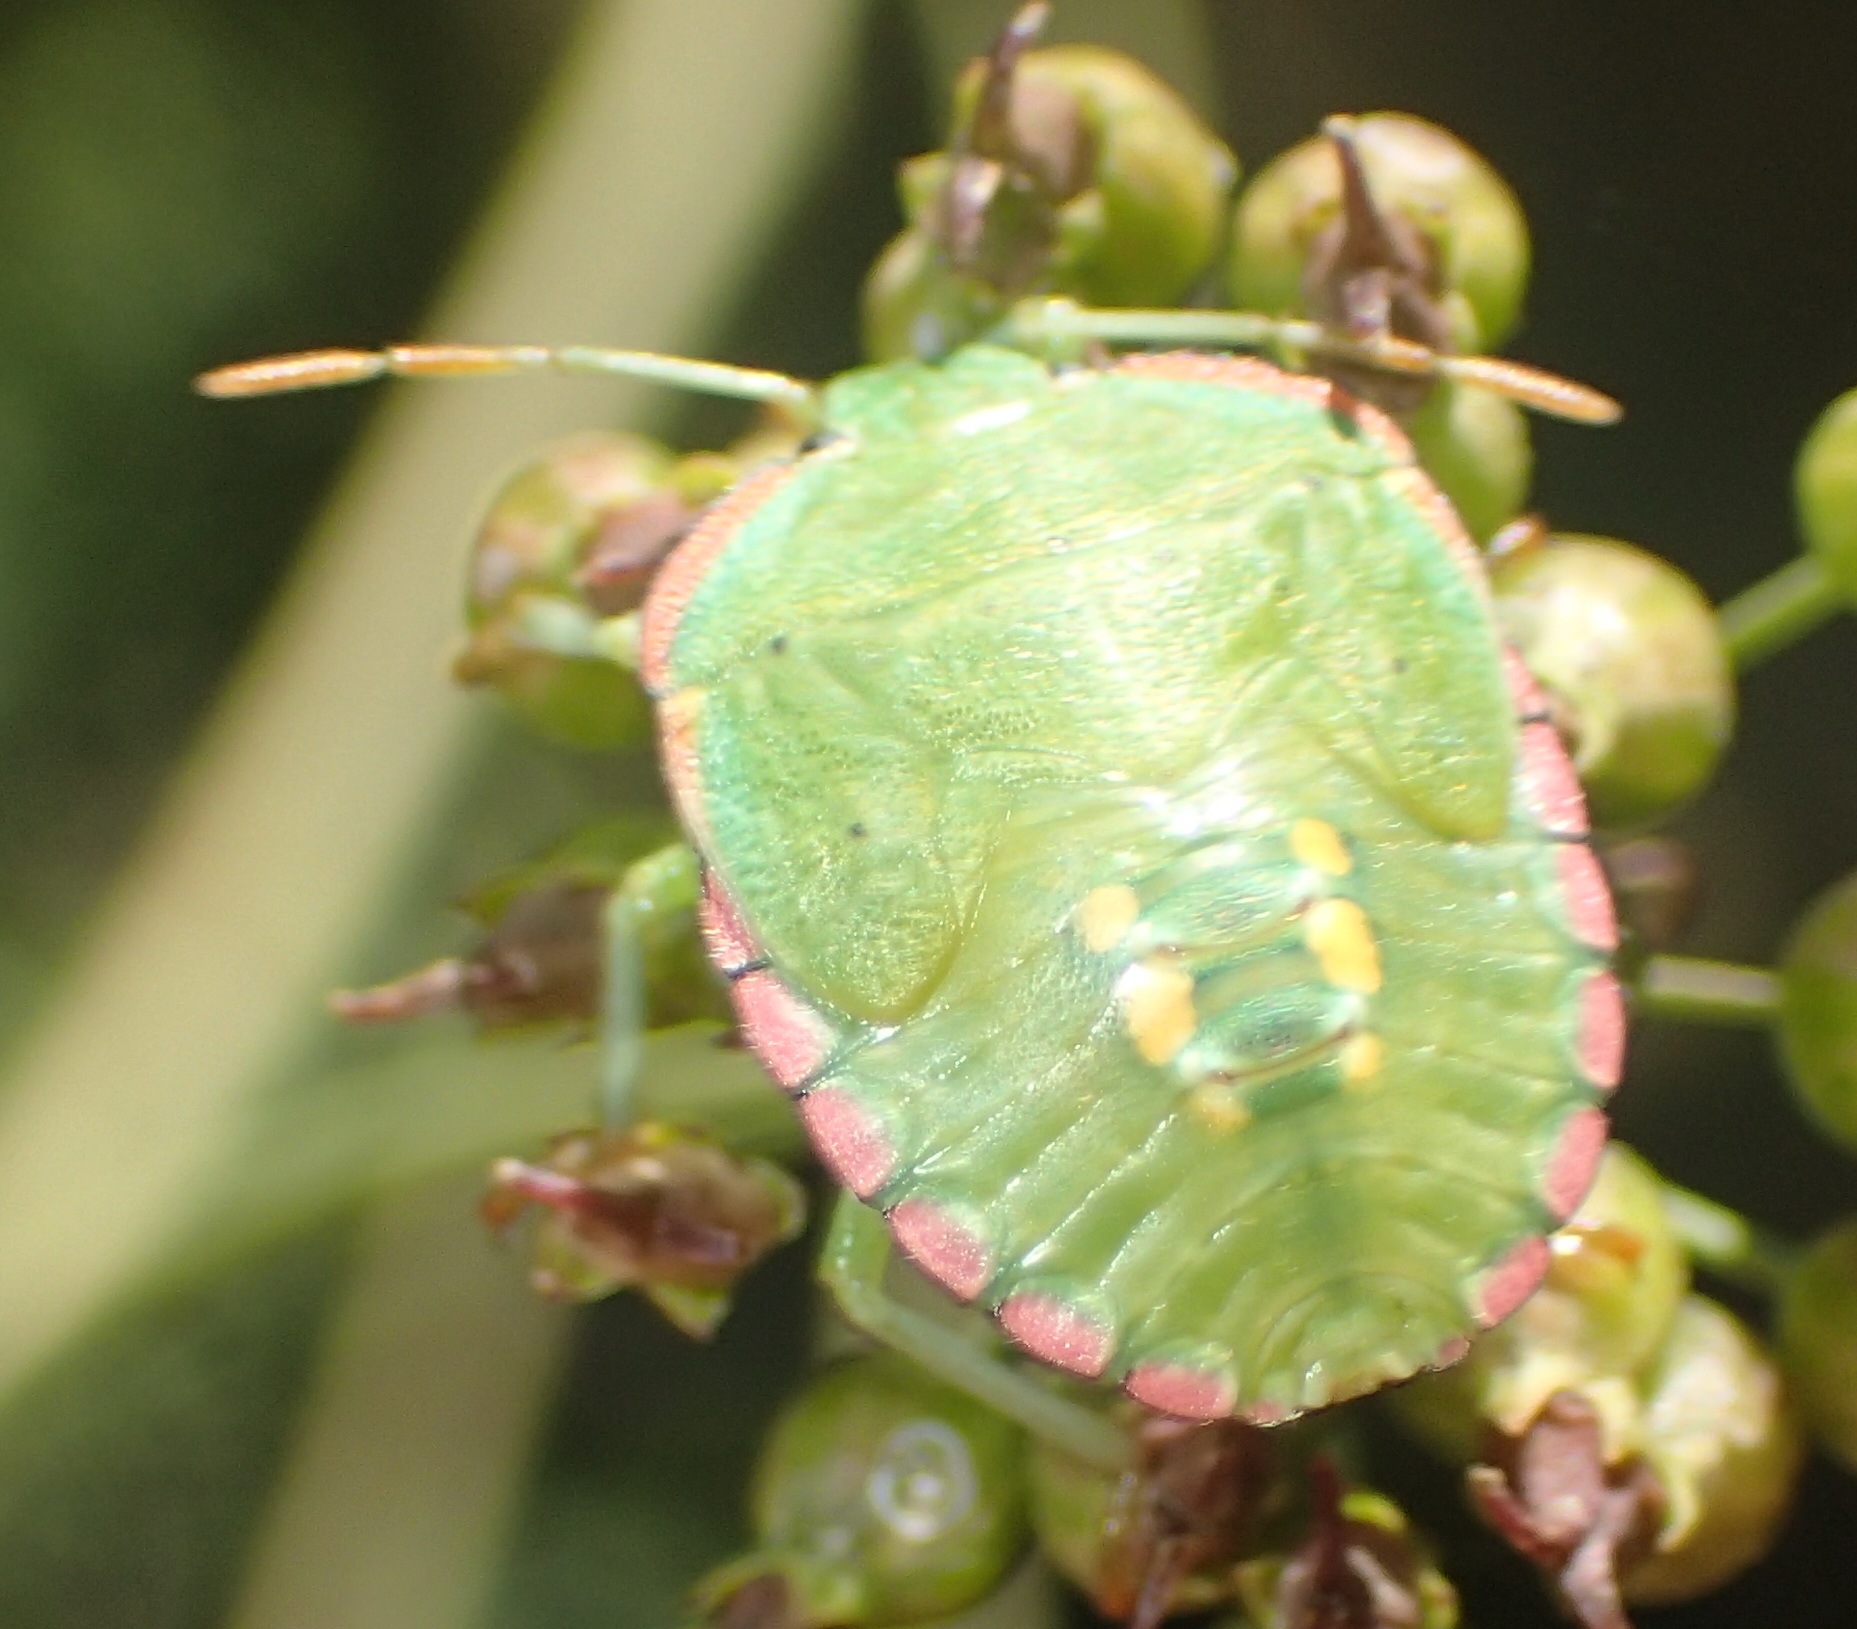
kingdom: Animalia
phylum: Arthropoda
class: Insecta
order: Hemiptera
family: Pentatomidae
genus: Nezara
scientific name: Nezara capicola
